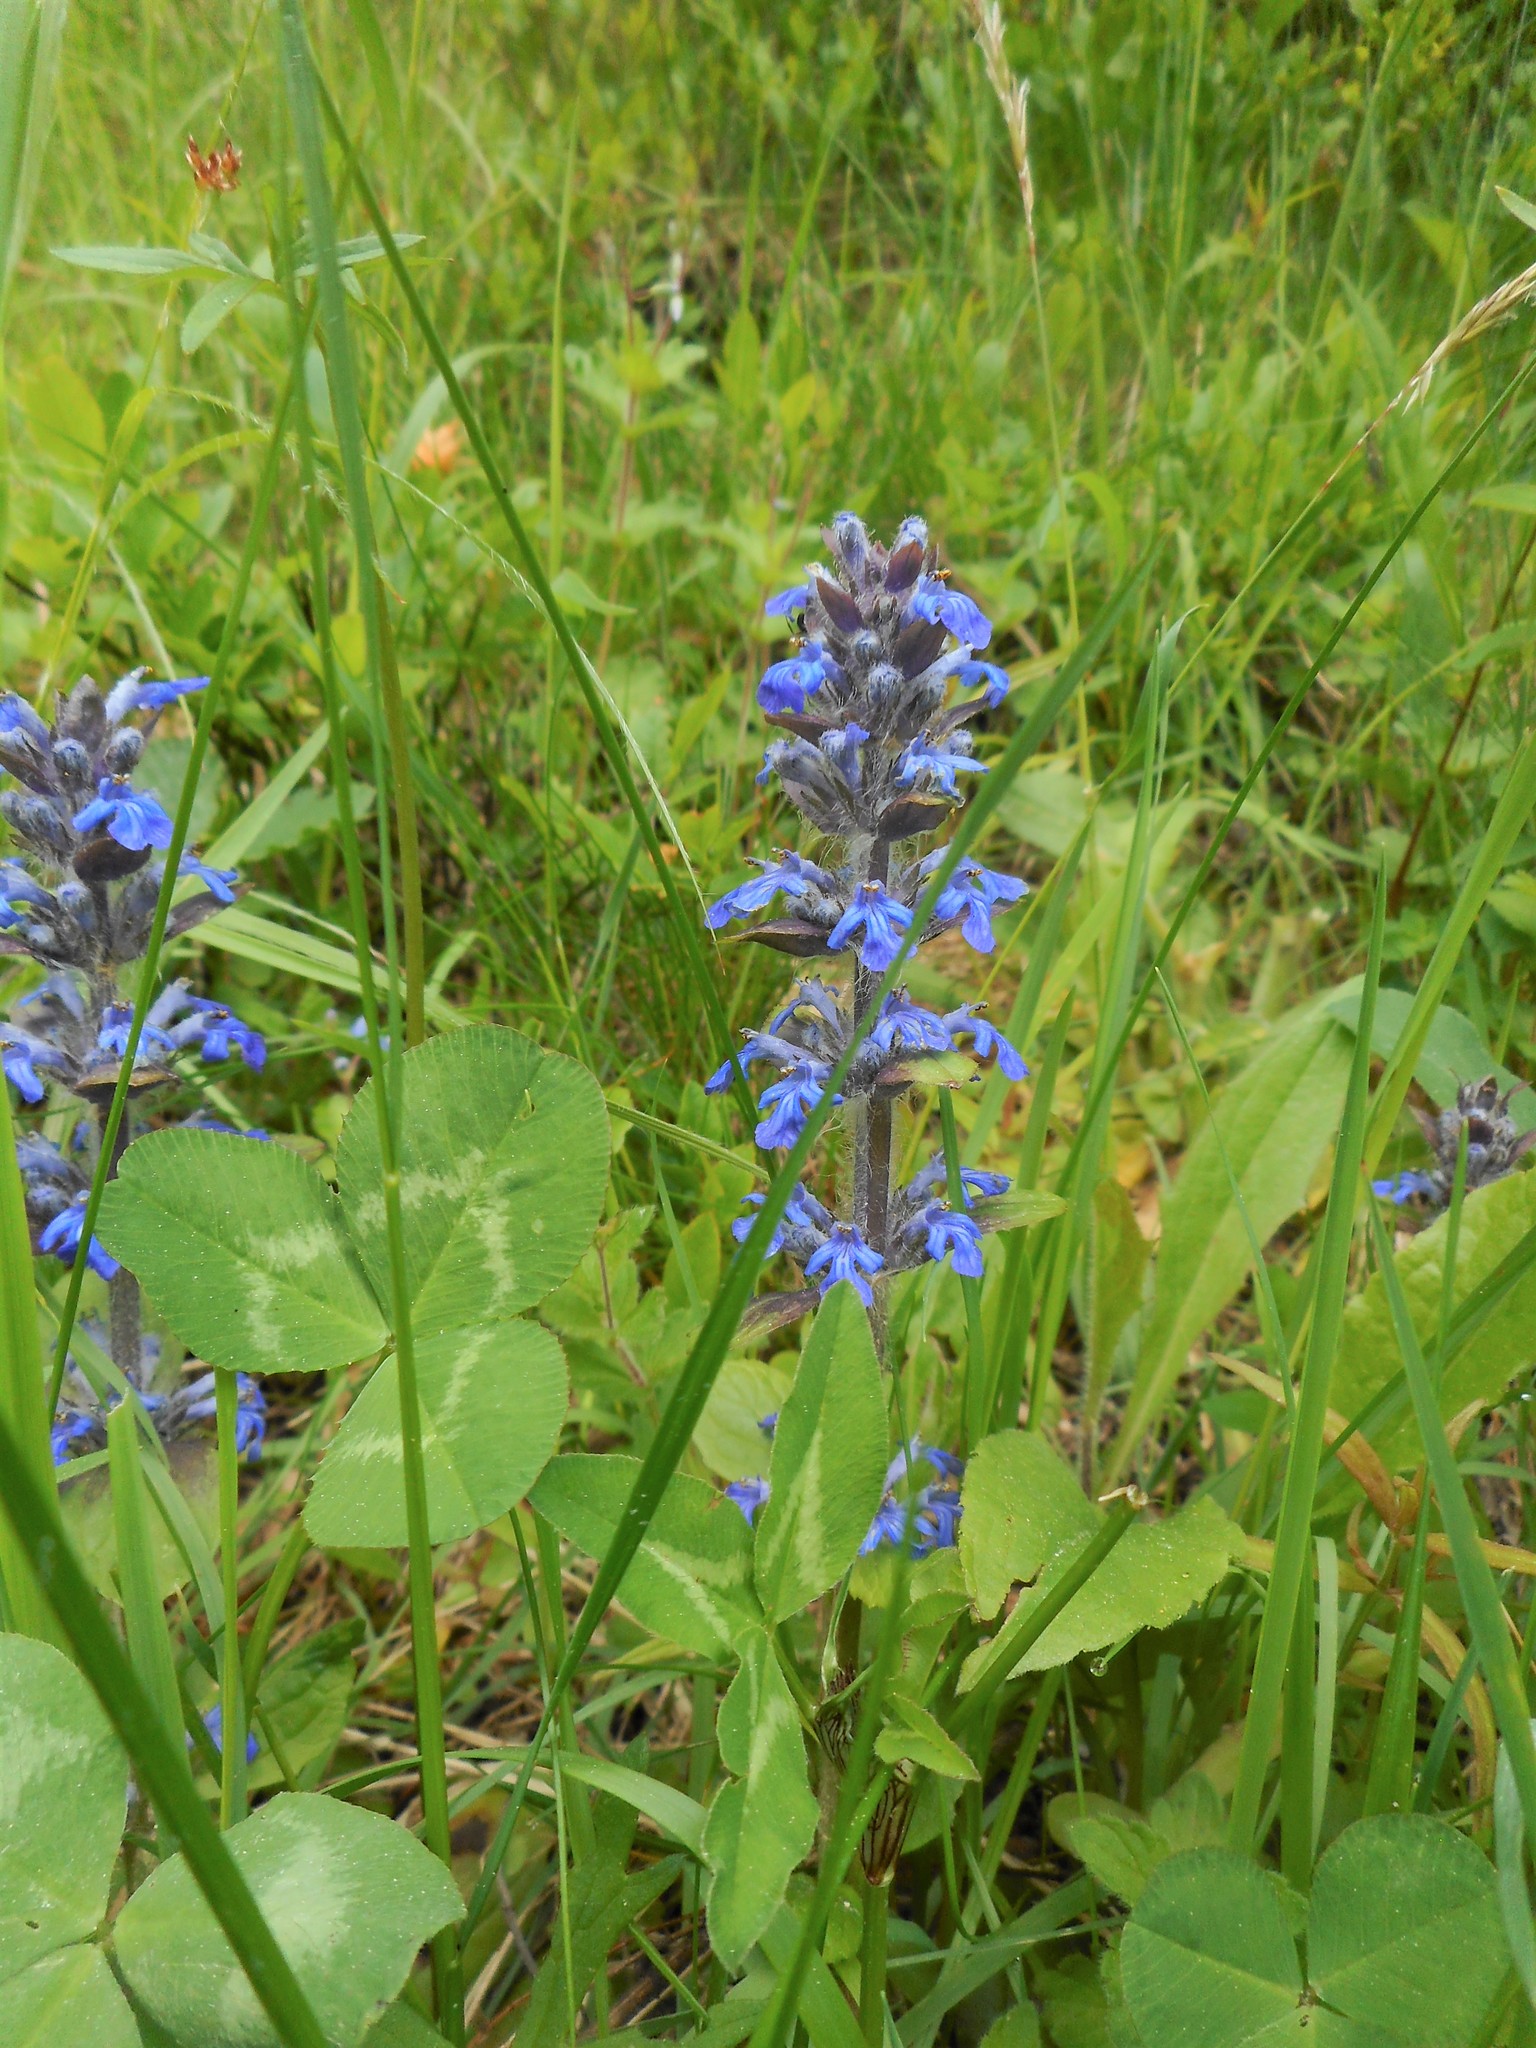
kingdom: Plantae
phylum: Tracheophyta
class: Magnoliopsida
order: Lamiales
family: Lamiaceae
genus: Ajuga
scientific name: Ajuga reptans
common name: Bugle
